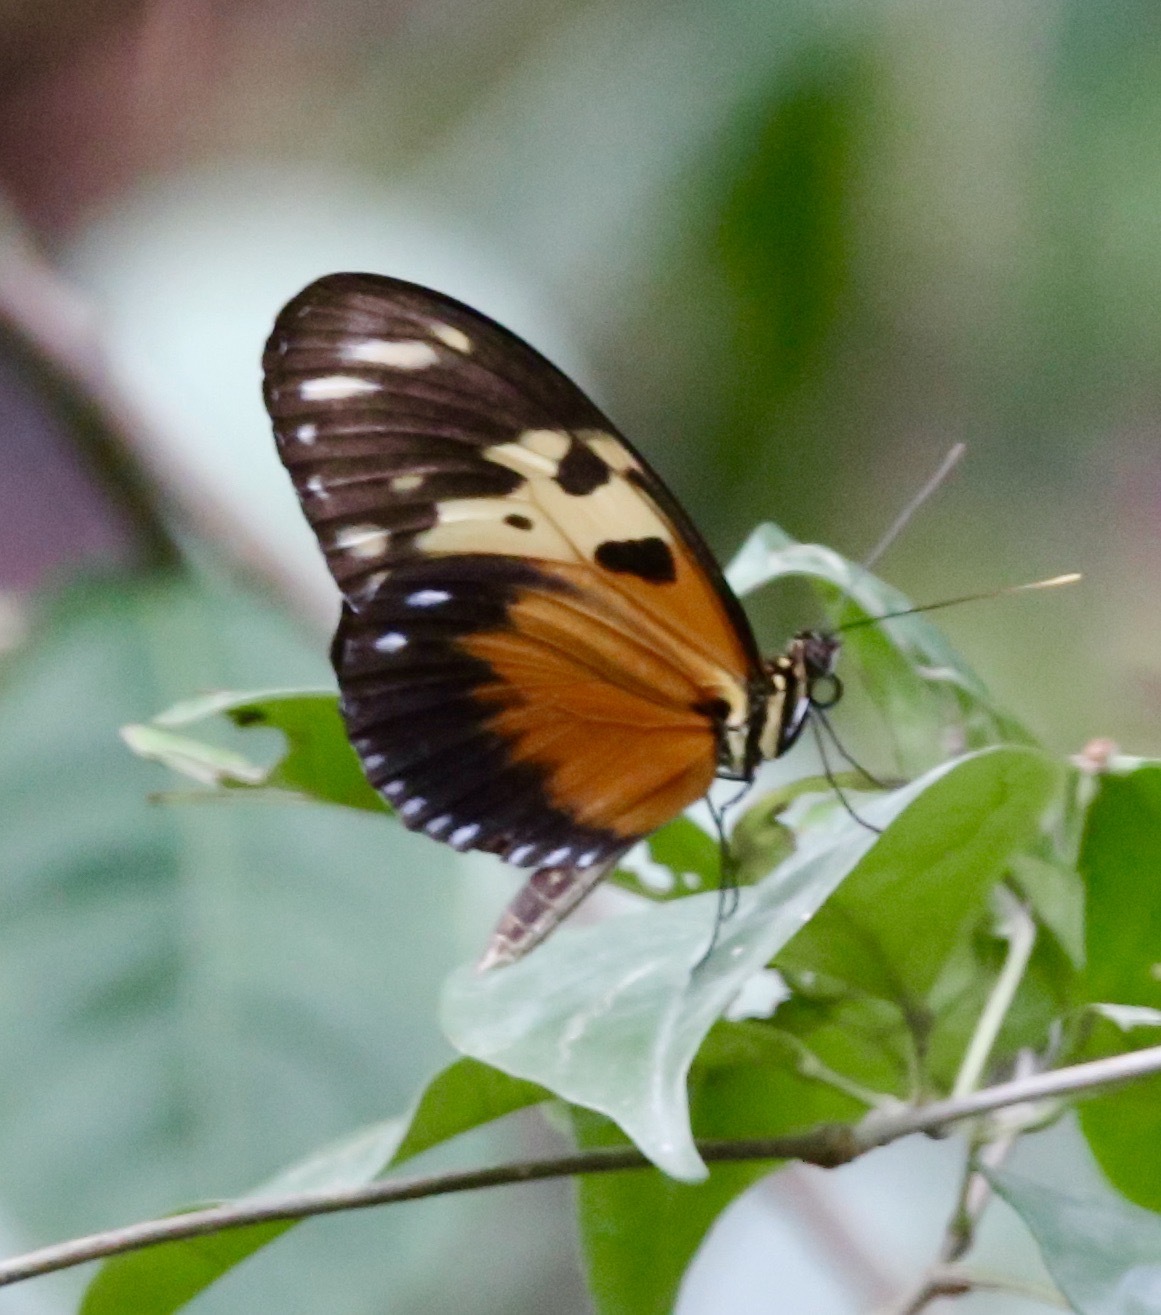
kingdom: Animalia
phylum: Arthropoda
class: Insecta
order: Lepidoptera
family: Nymphalidae
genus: Heliconius
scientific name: Heliconius hecale
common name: Tiger longwing
